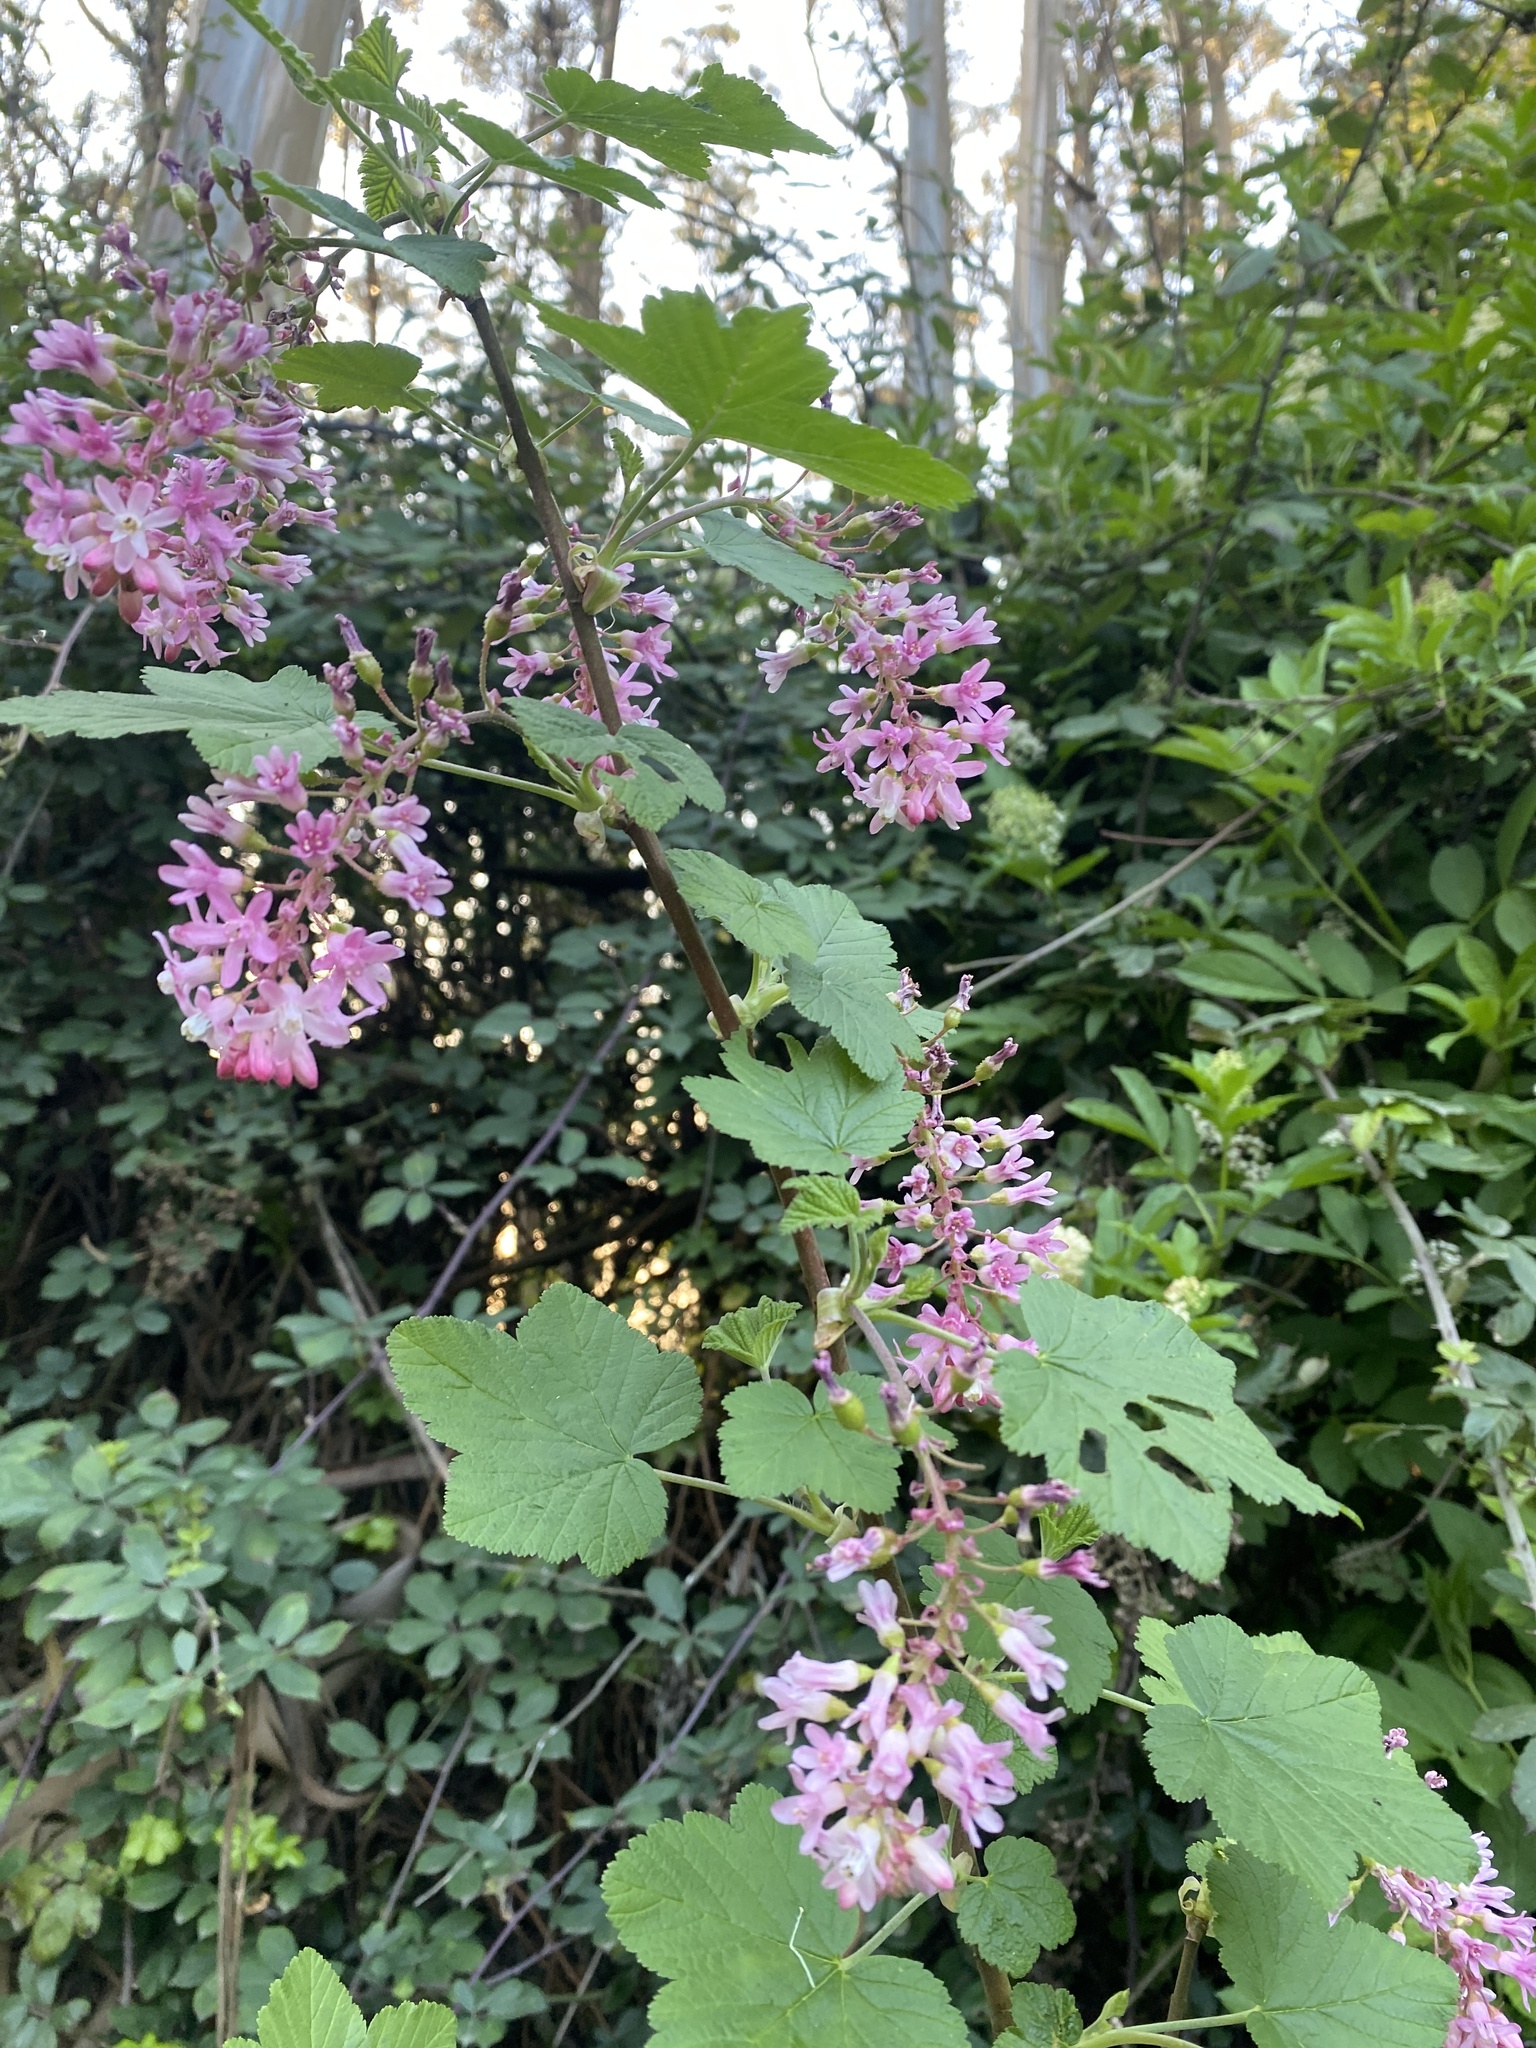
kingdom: Plantae
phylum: Tracheophyta
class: Magnoliopsida
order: Saxifragales
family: Grossulariaceae
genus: Ribes
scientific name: Ribes sanguineum
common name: Flowering currant
